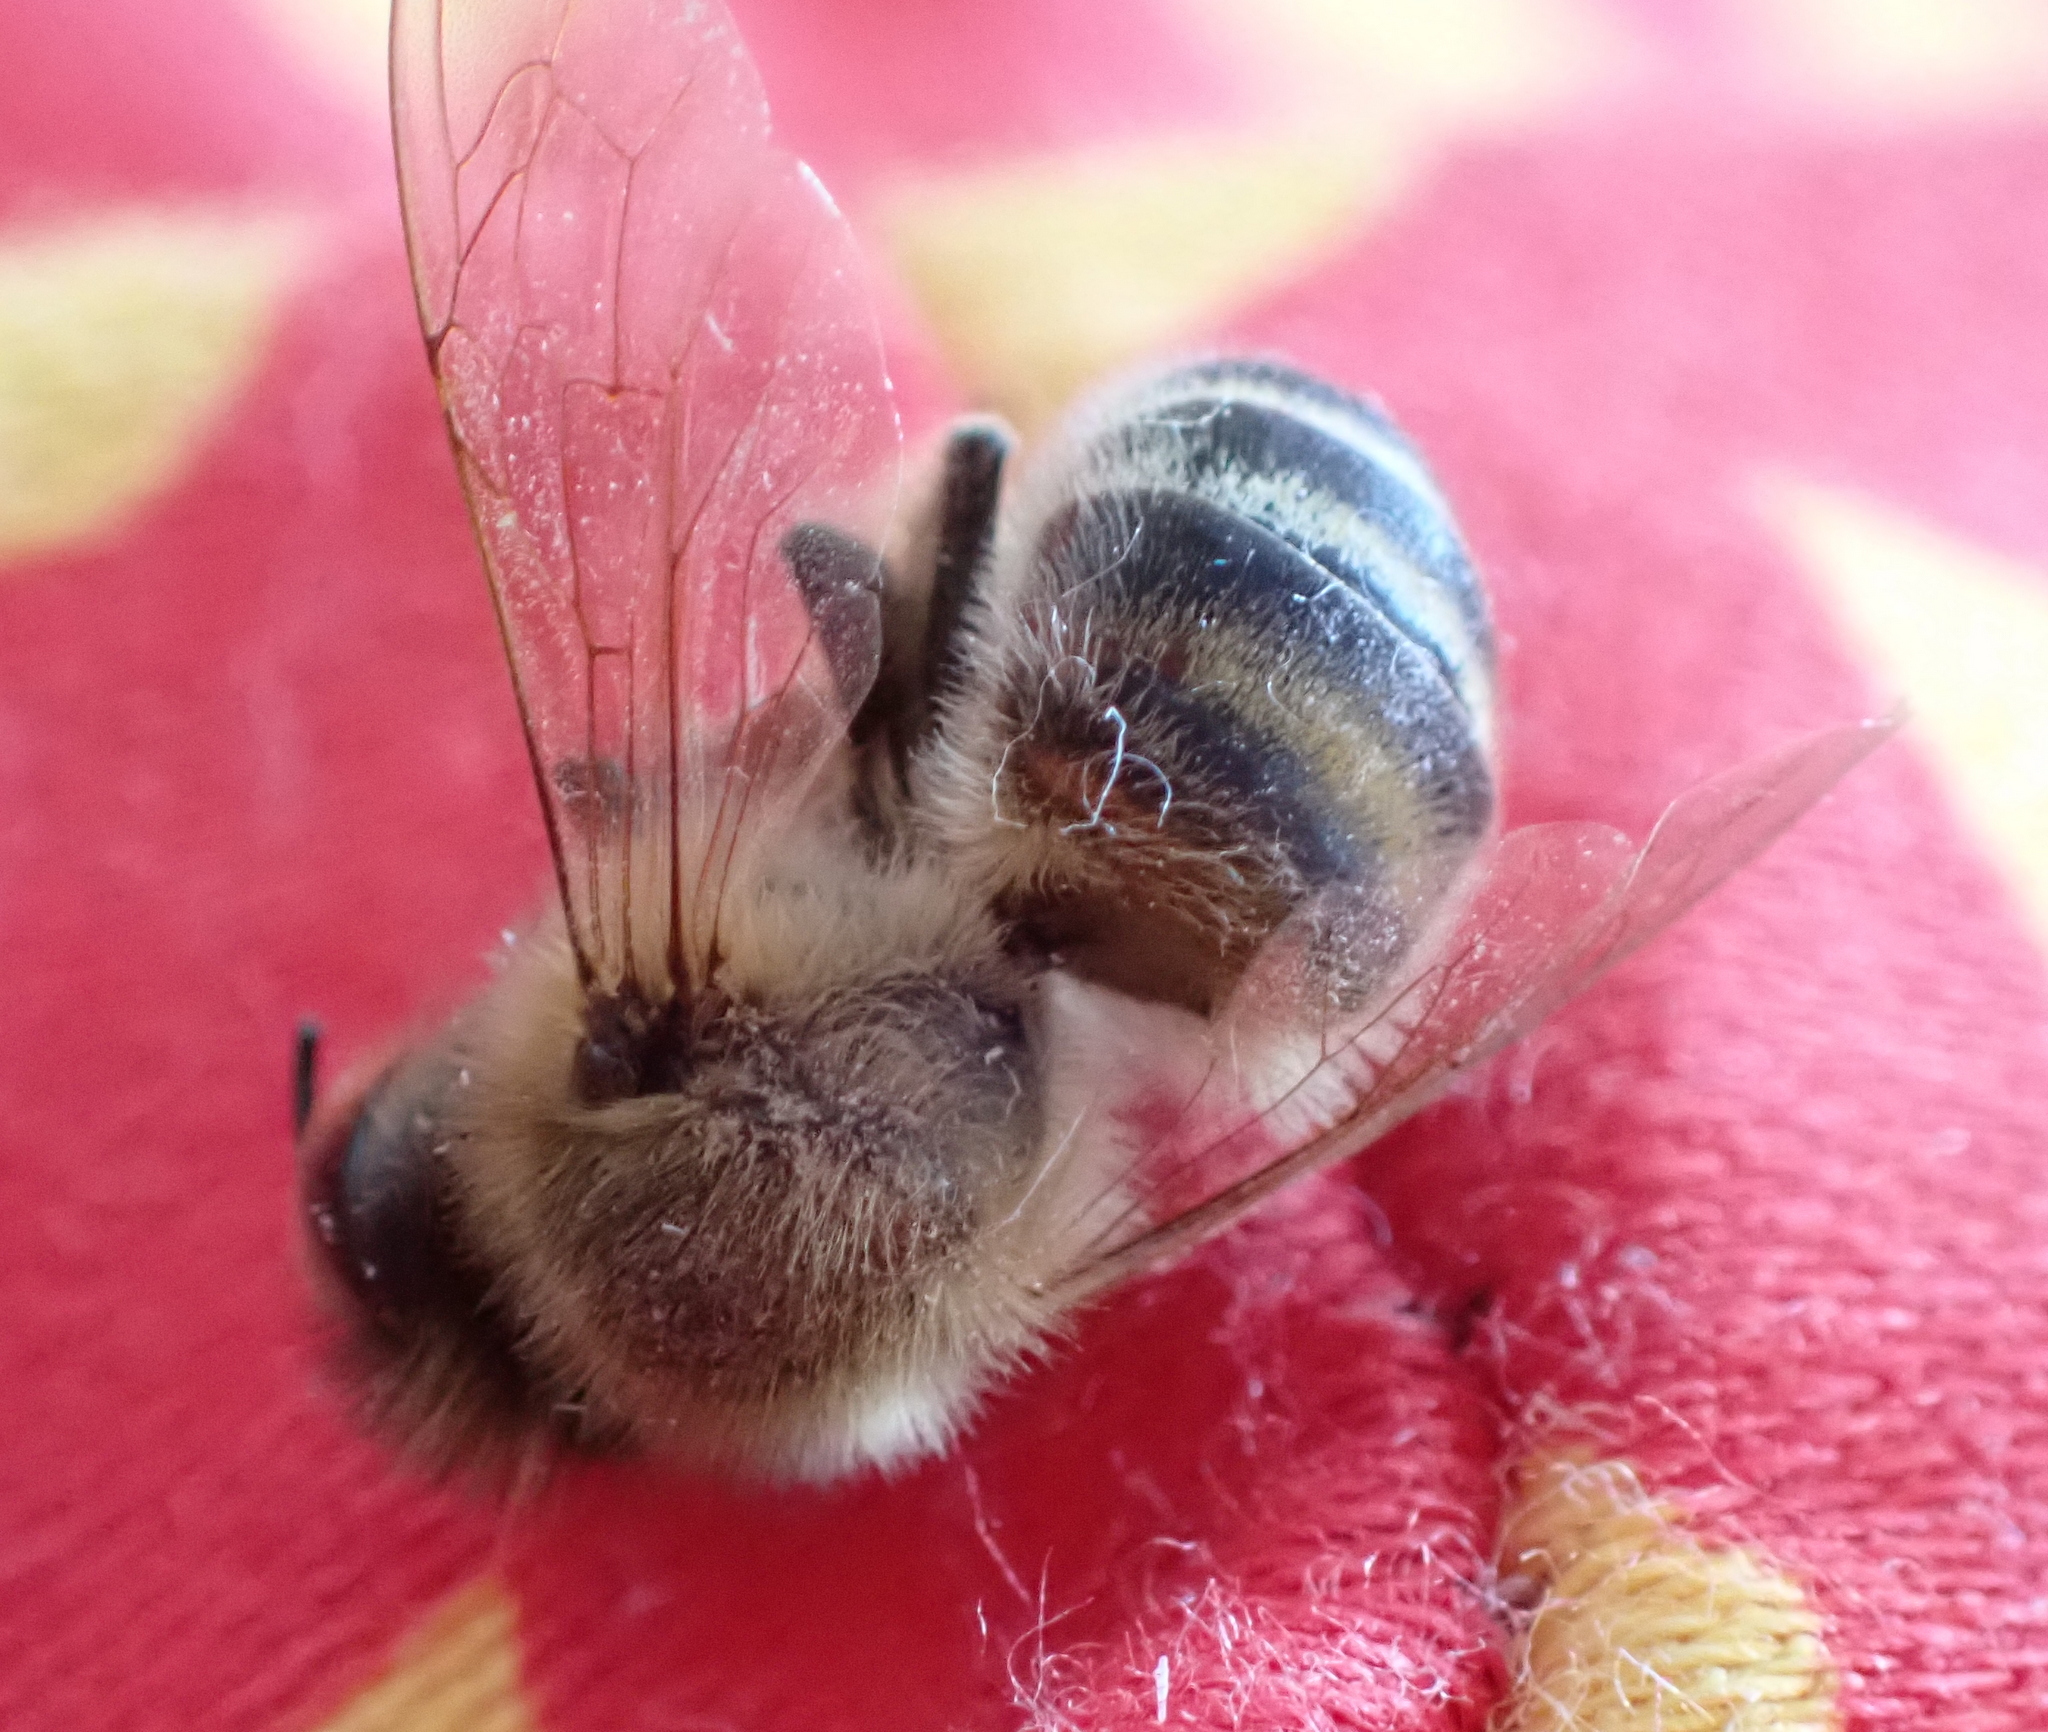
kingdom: Animalia
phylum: Arthropoda
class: Insecta
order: Hymenoptera
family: Apidae
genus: Apis
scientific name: Apis mellifera
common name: Honey bee
